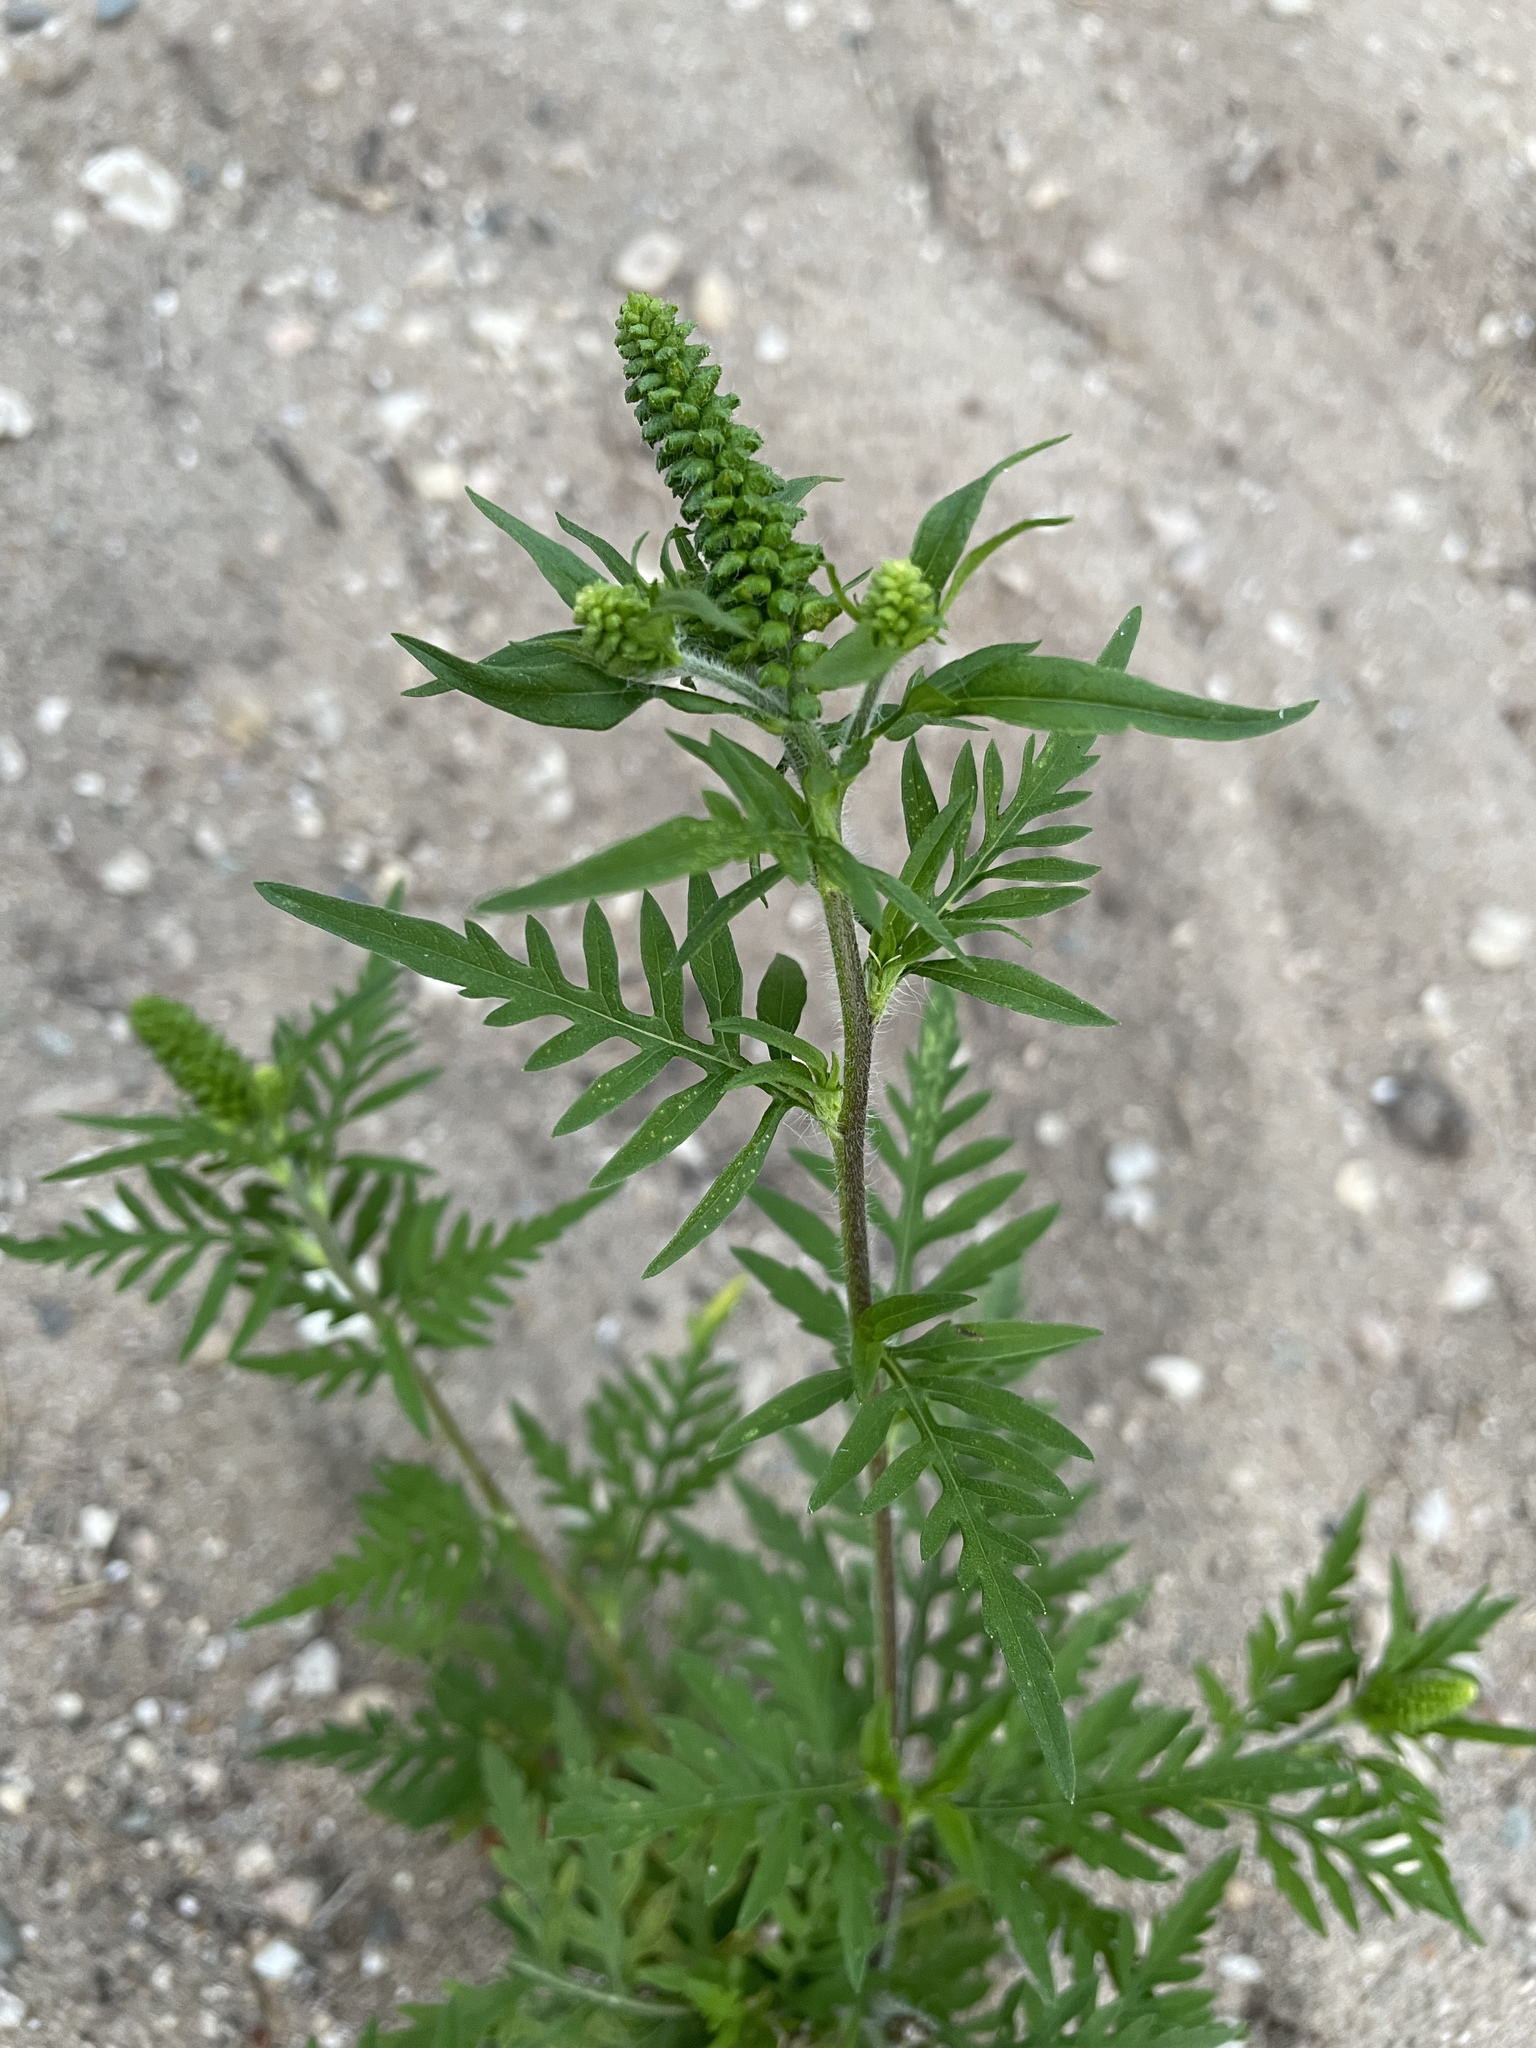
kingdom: Plantae
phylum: Tracheophyta
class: Magnoliopsida
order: Asterales
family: Asteraceae
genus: Ambrosia
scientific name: Ambrosia artemisiifolia
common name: Annual ragweed
